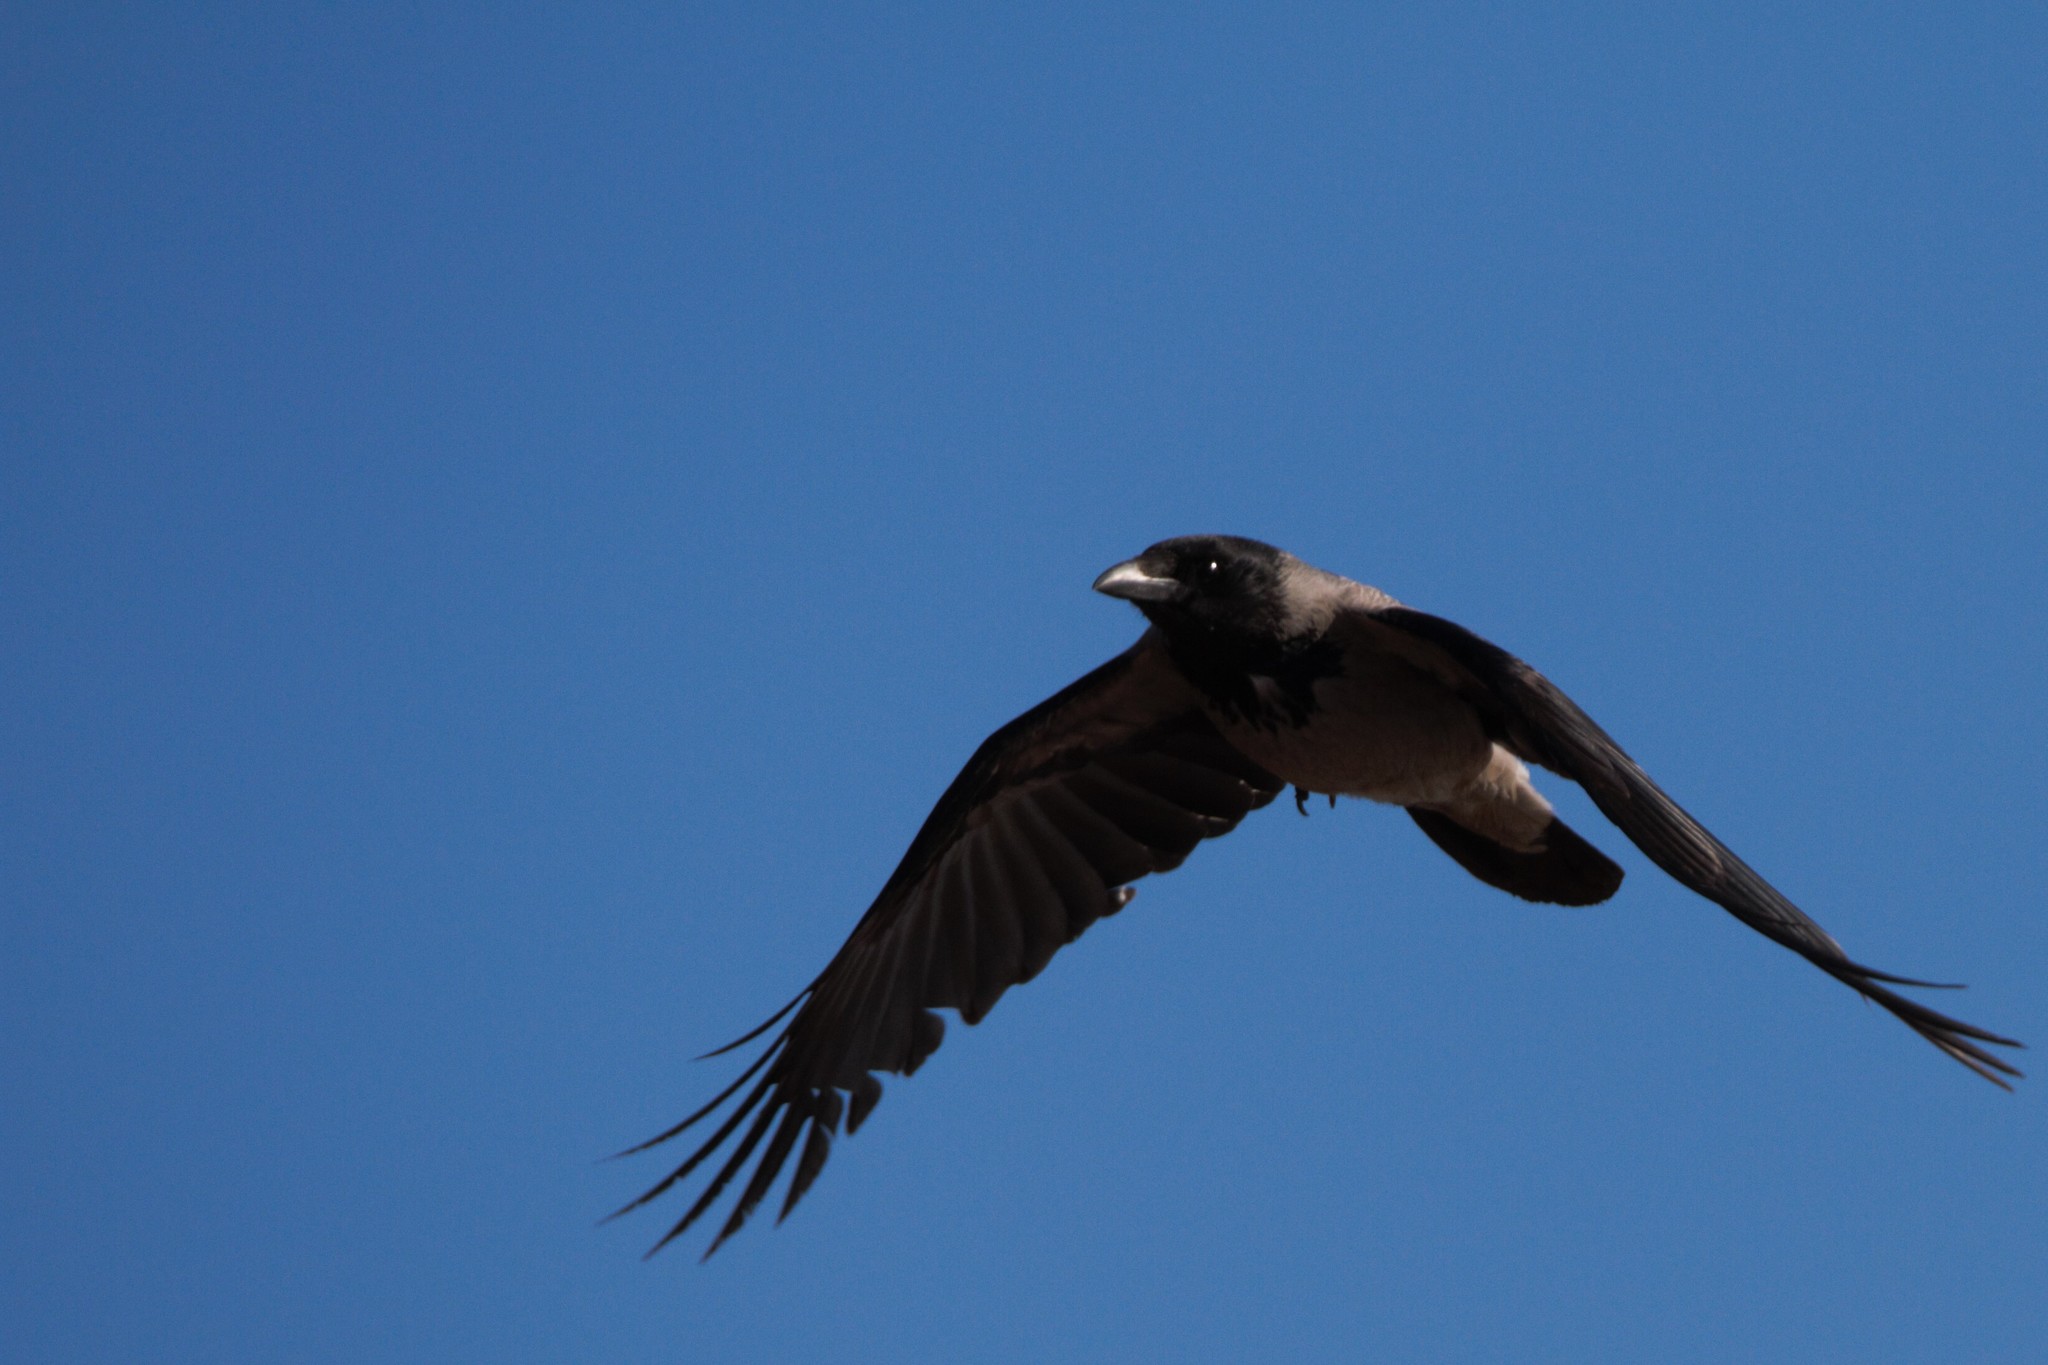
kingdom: Animalia
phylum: Chordata
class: Aves
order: Passeriformes
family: Corvidae
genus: Corvus
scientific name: Corvus cornix
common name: Hooded crow
